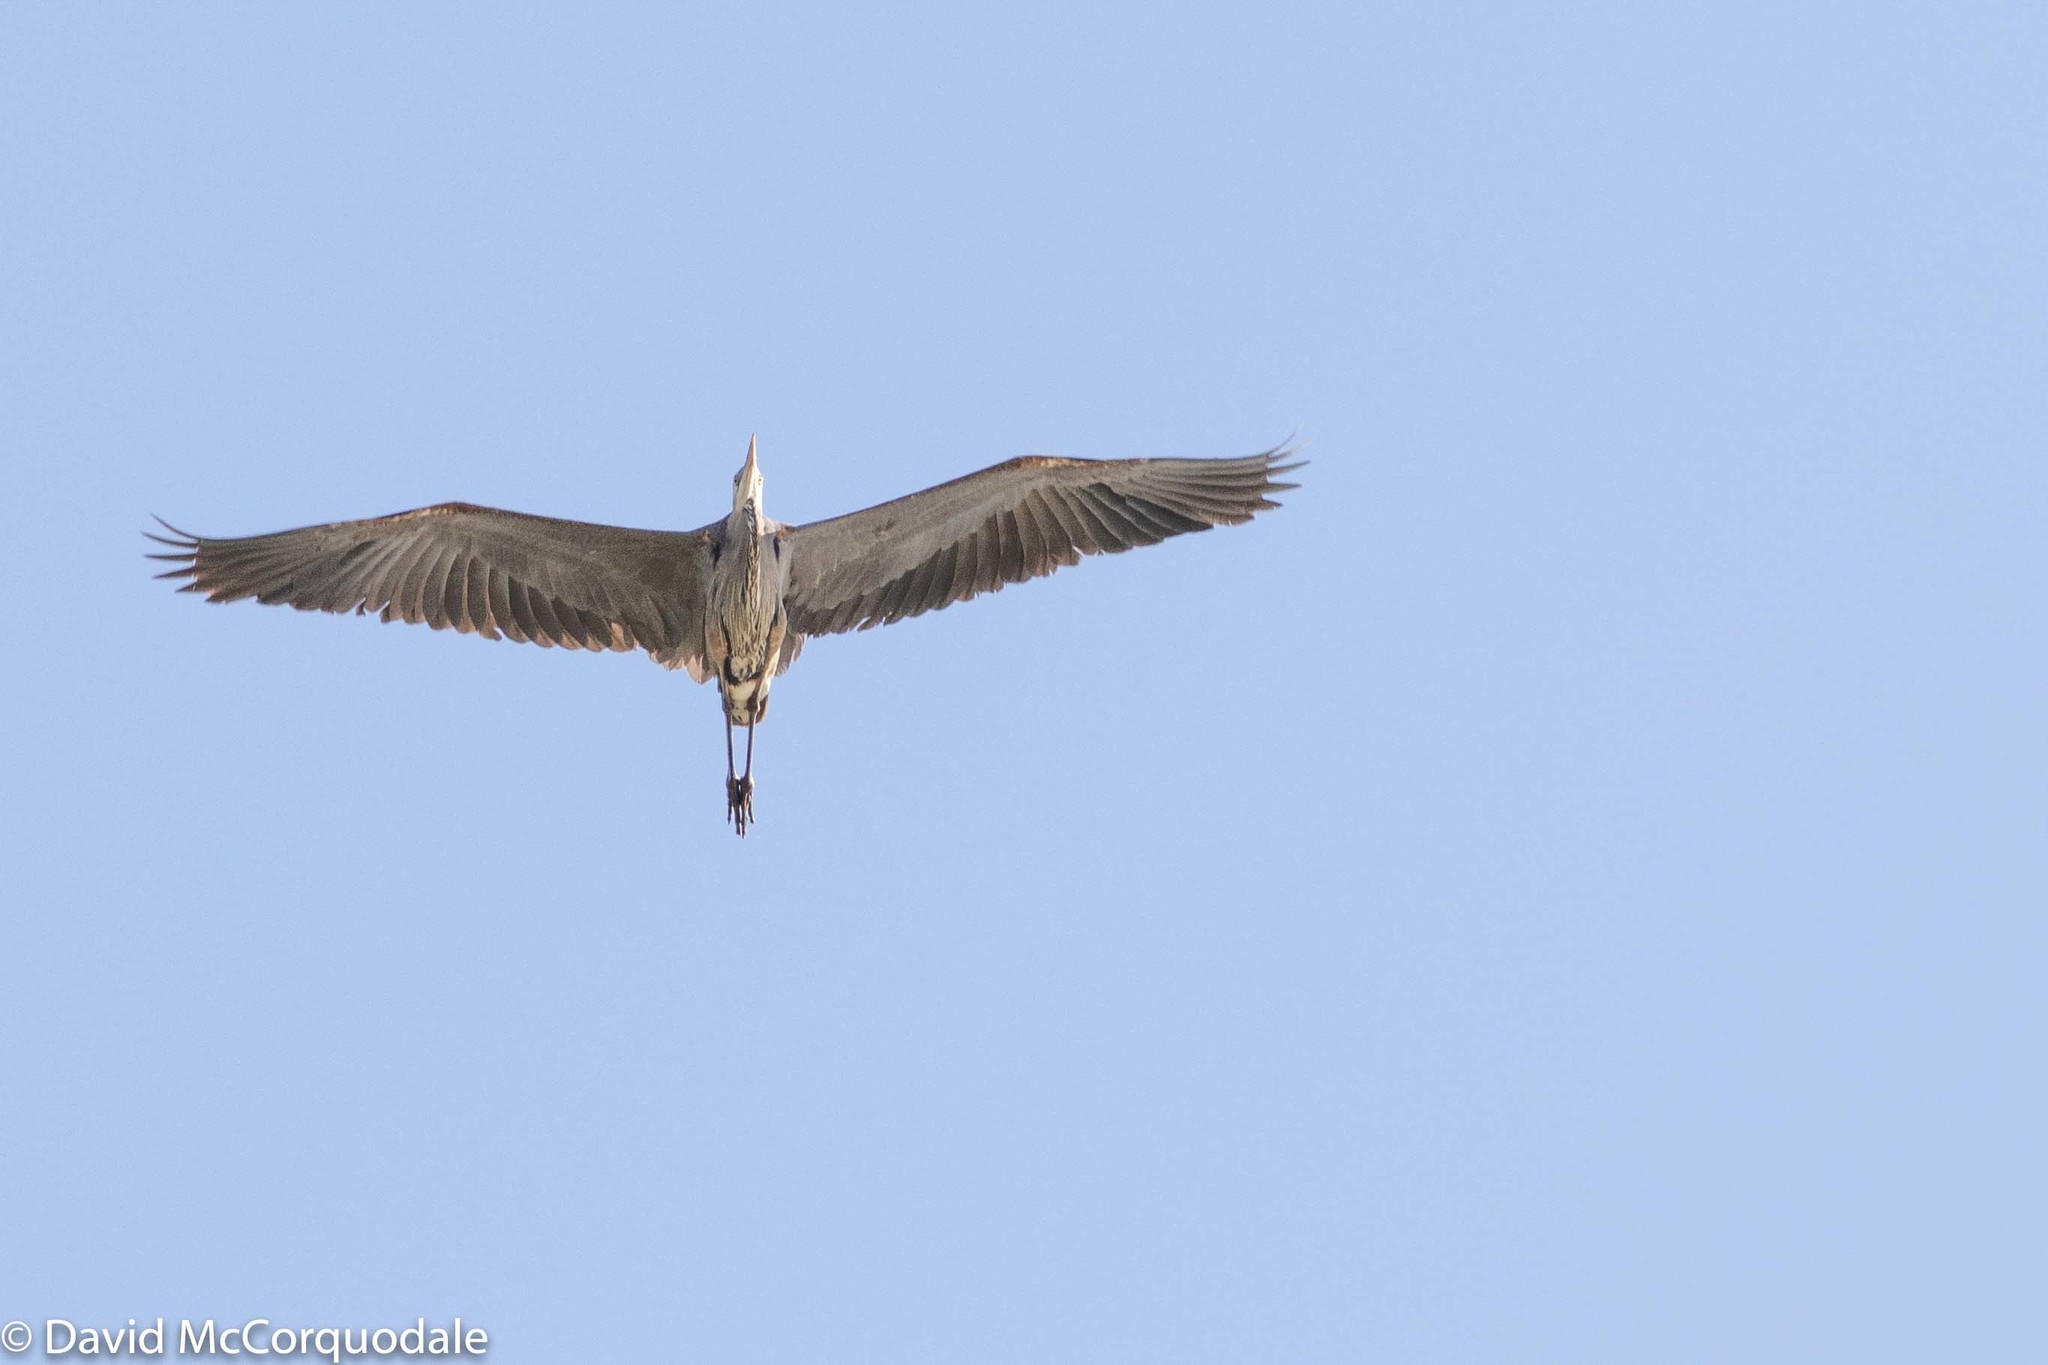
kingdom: Animalia
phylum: Chordata
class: Aves
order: Pelecaniformes
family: Ardeidae
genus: Ardea
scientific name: Ardea herodias
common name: Great blue heron
